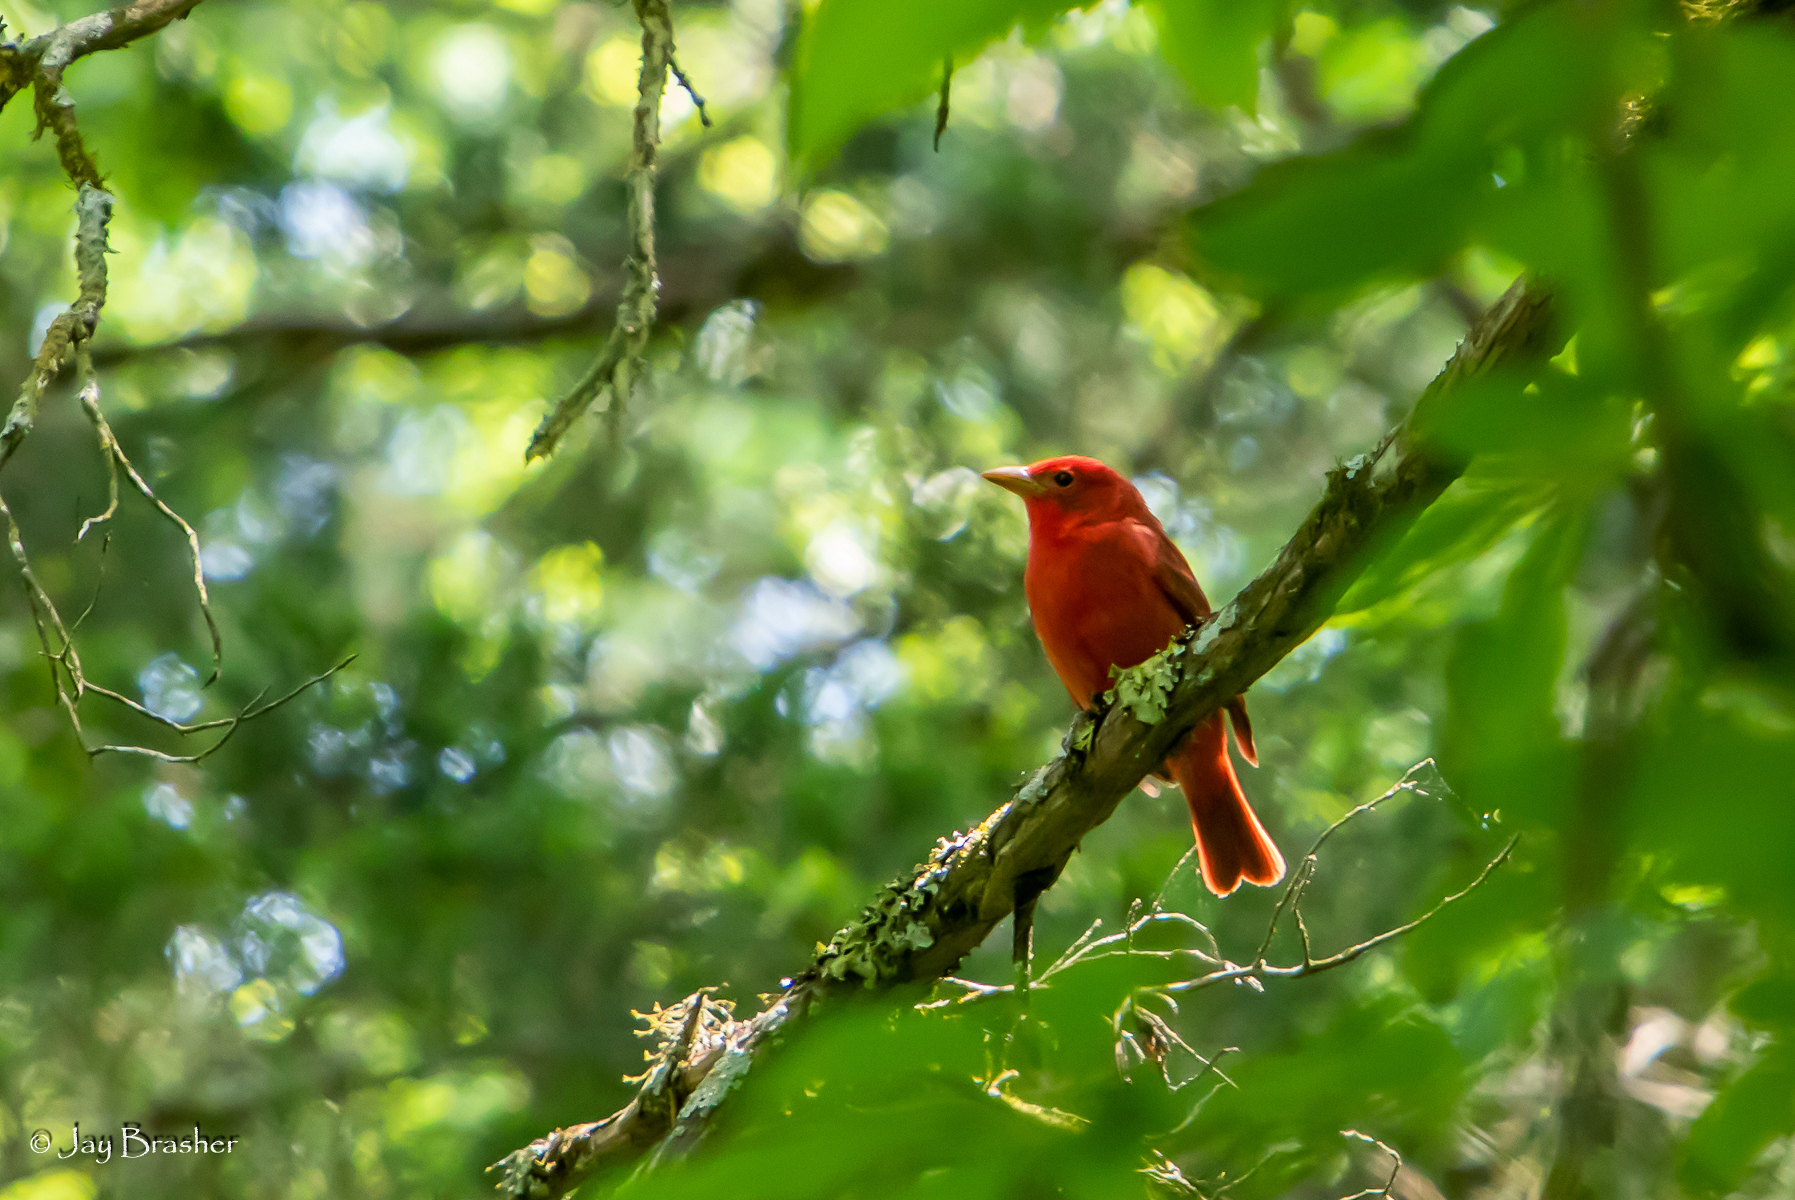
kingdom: Animalia
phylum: Chordata
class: Aves
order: Passeriformes
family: Cardinalidae
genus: Piranga
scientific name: Piranga rubra
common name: Summer tanager
